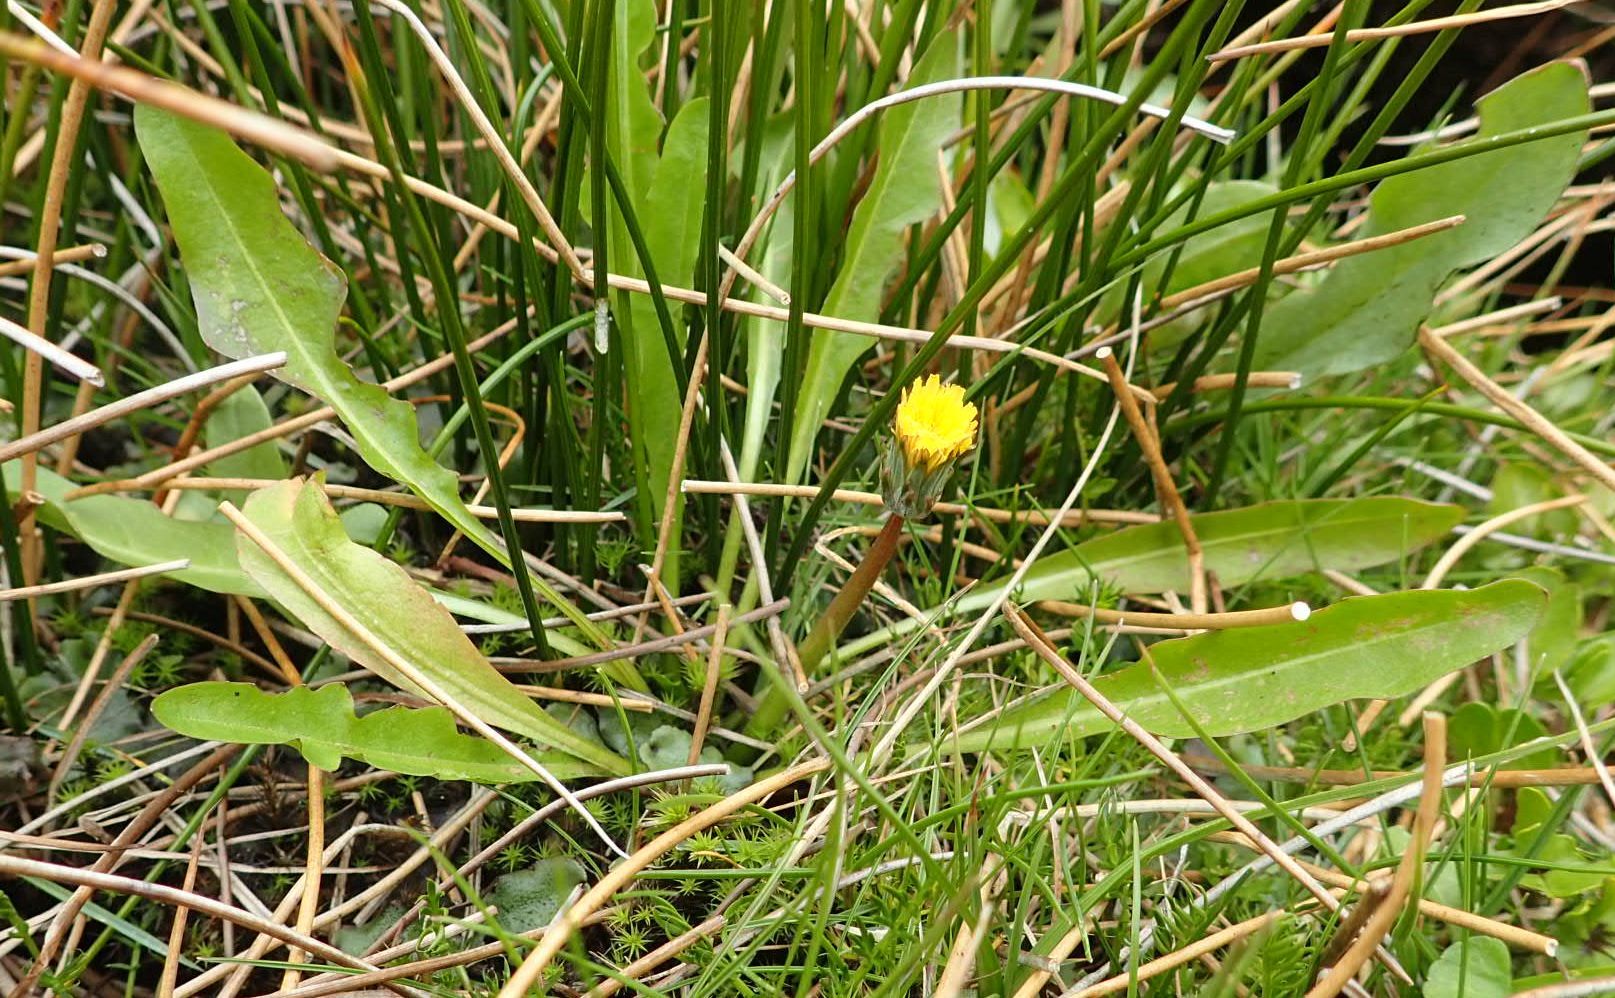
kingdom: Plantae
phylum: Tracheophyta
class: Magnoliopsida
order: Asterales
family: Asteraceae
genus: Taraxacum
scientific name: Taraxacum zealandicum
